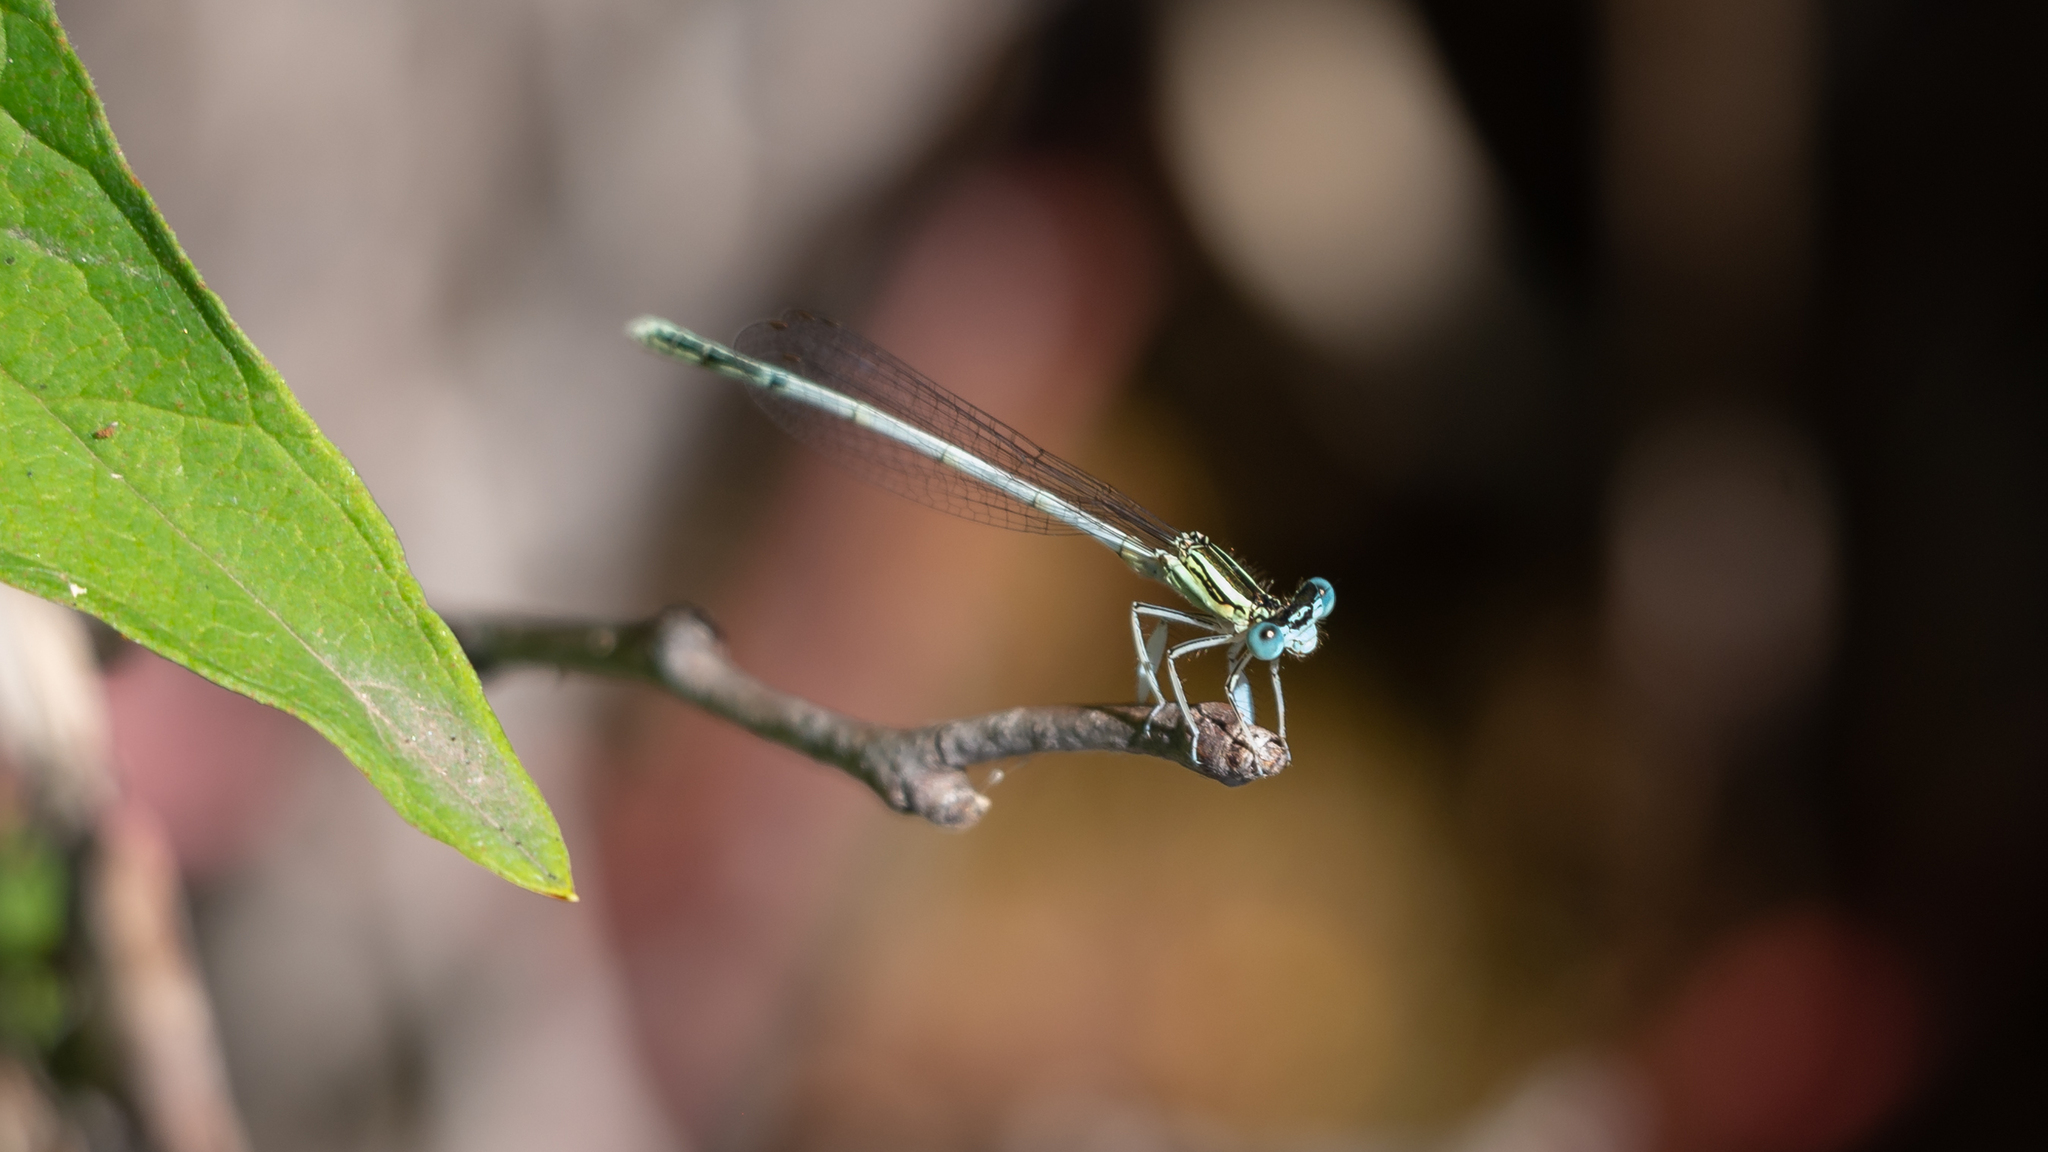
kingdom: Animalia
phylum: Arthropoda
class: Insecta
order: Odonata
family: Platycnemididae
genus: Platycnemis
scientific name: Platycnemis latipes
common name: White featherleg
